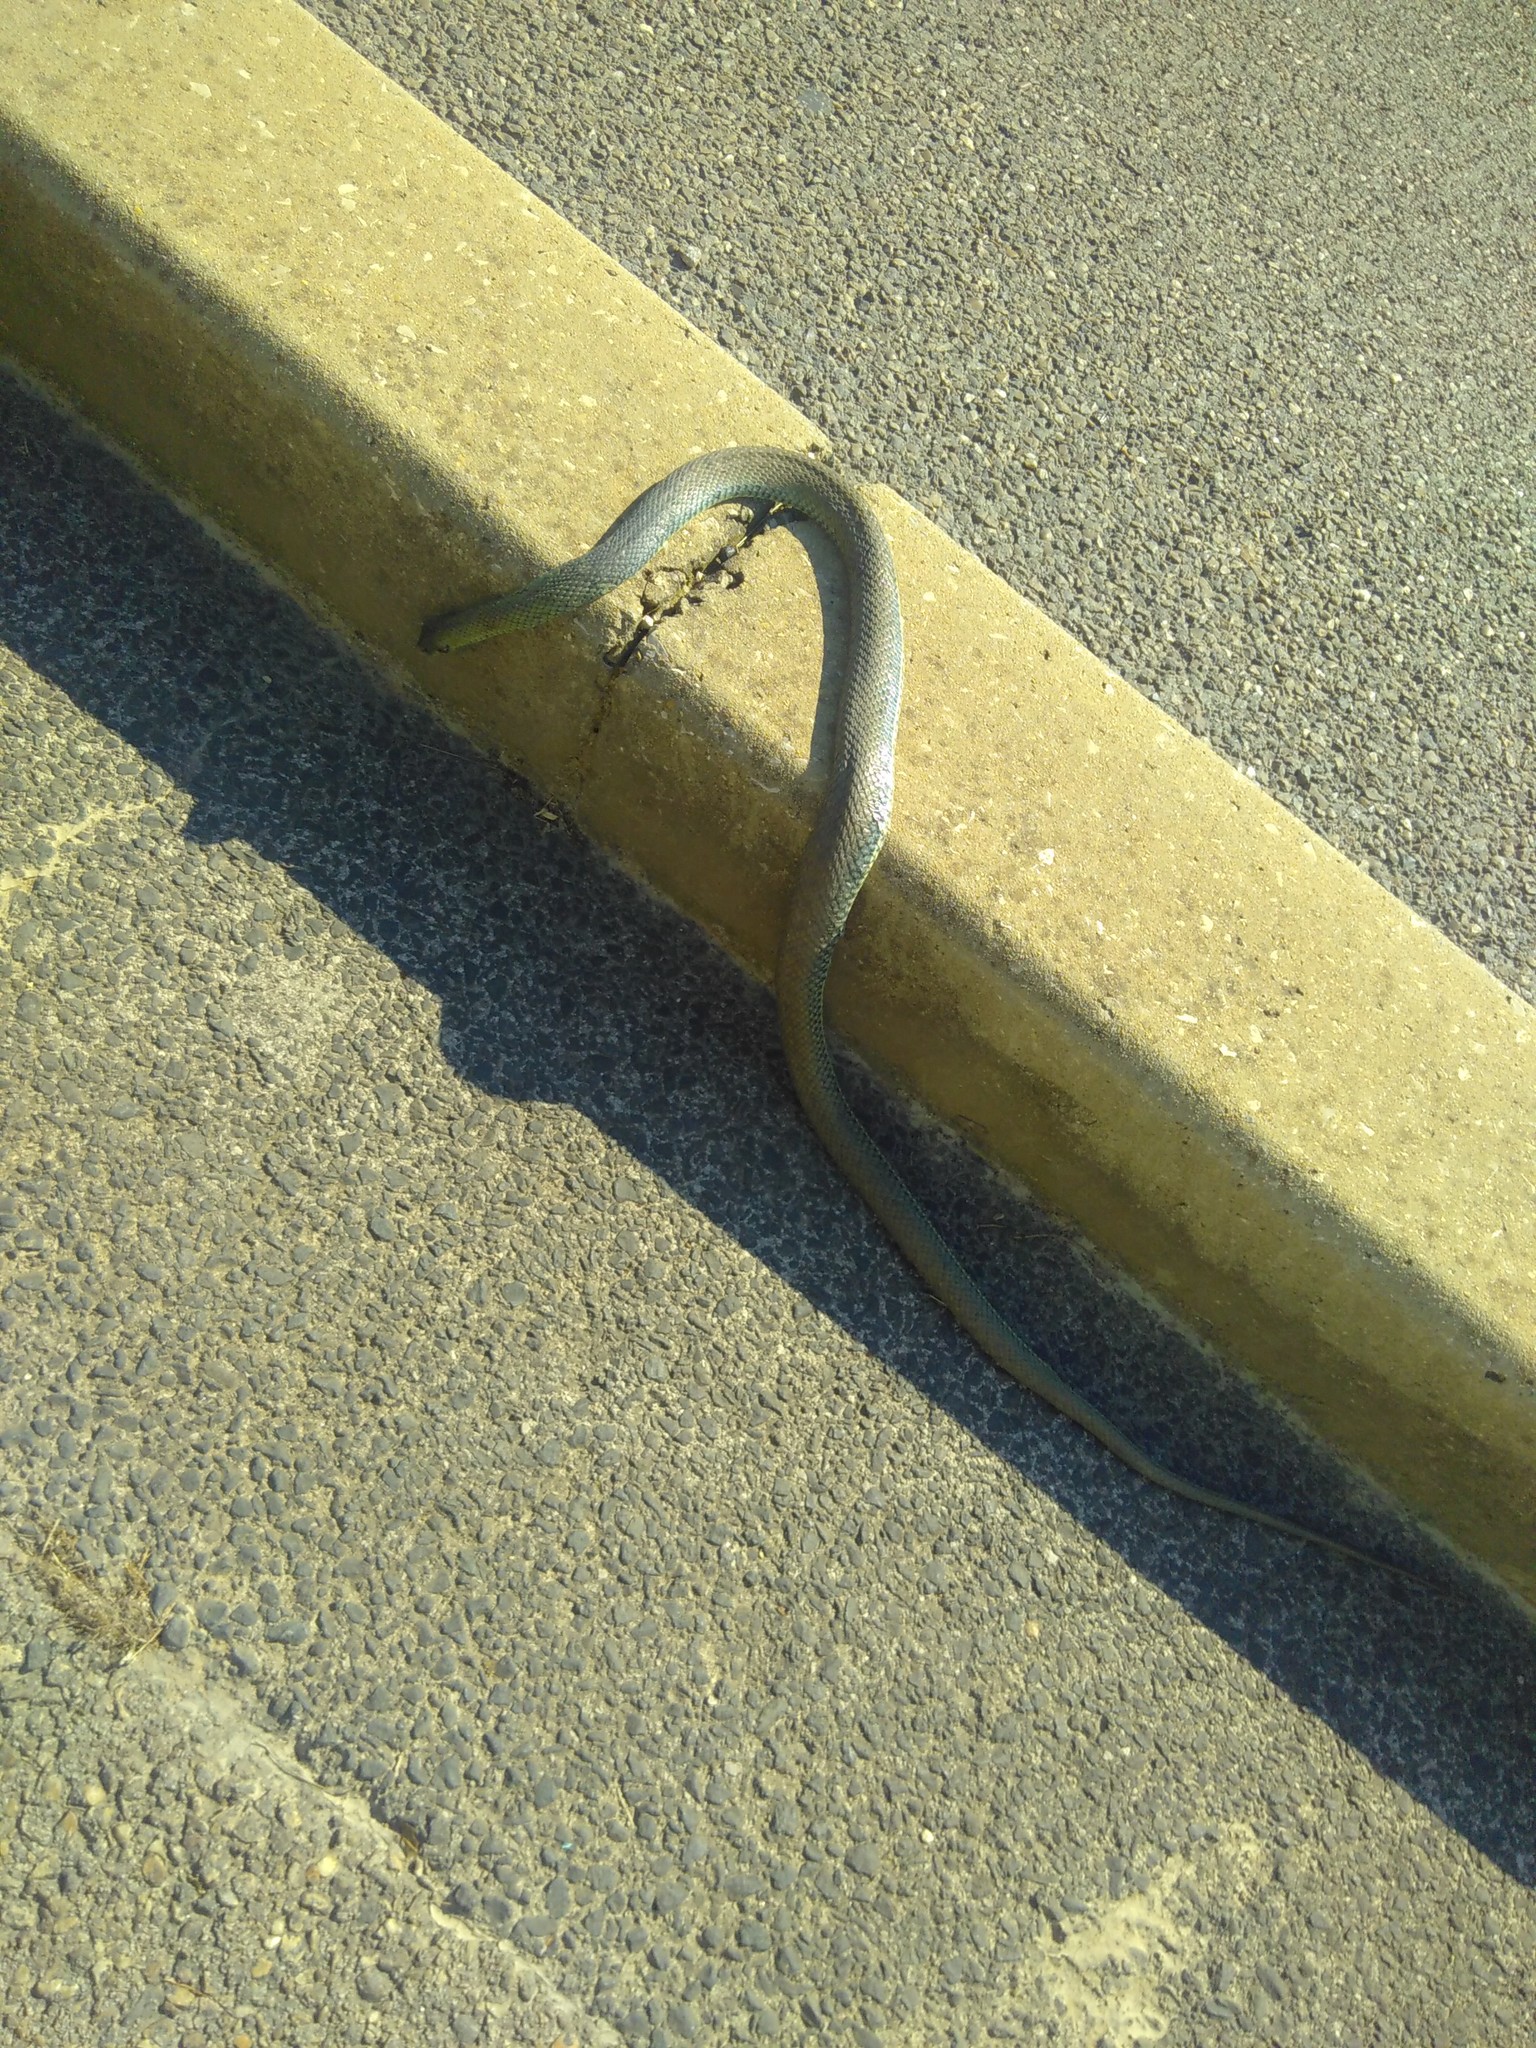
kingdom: Animalia
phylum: Chordata
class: Squamata
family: Psammophiidae
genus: Malpolon
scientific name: Malpolon monspessulanus
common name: Montpellier snake
